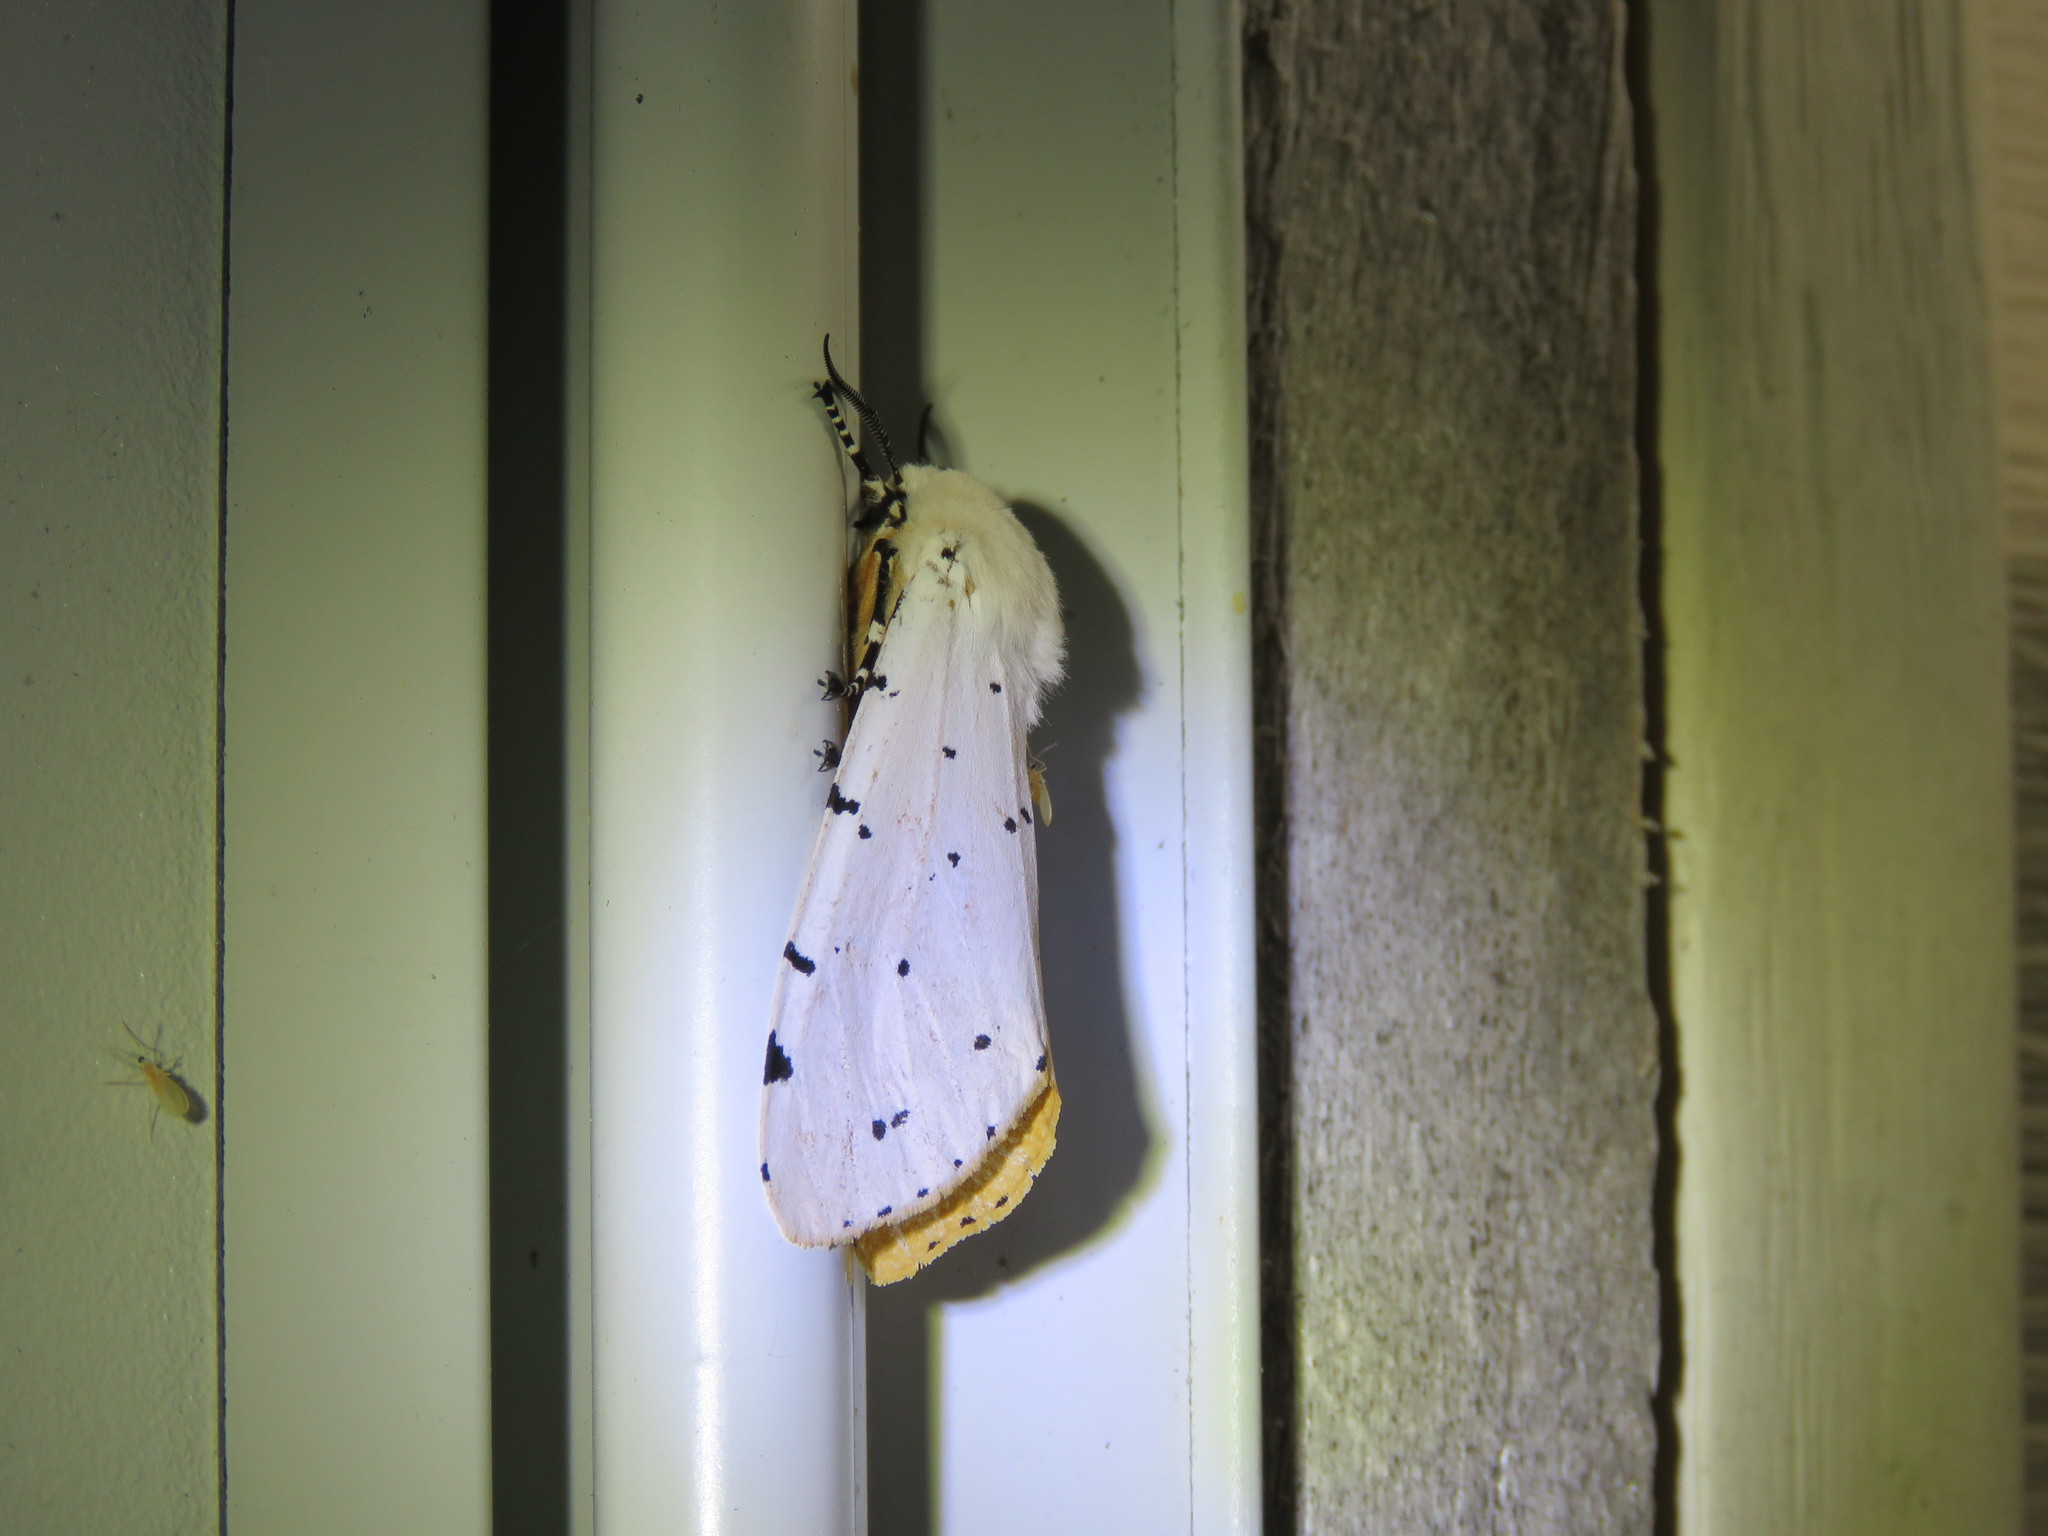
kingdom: Animalia
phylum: Arthropoda
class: Insecta
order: Lepidoptera
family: Erebidae
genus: Estigmene
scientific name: Estigmene acrea
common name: Salt marsh moth
